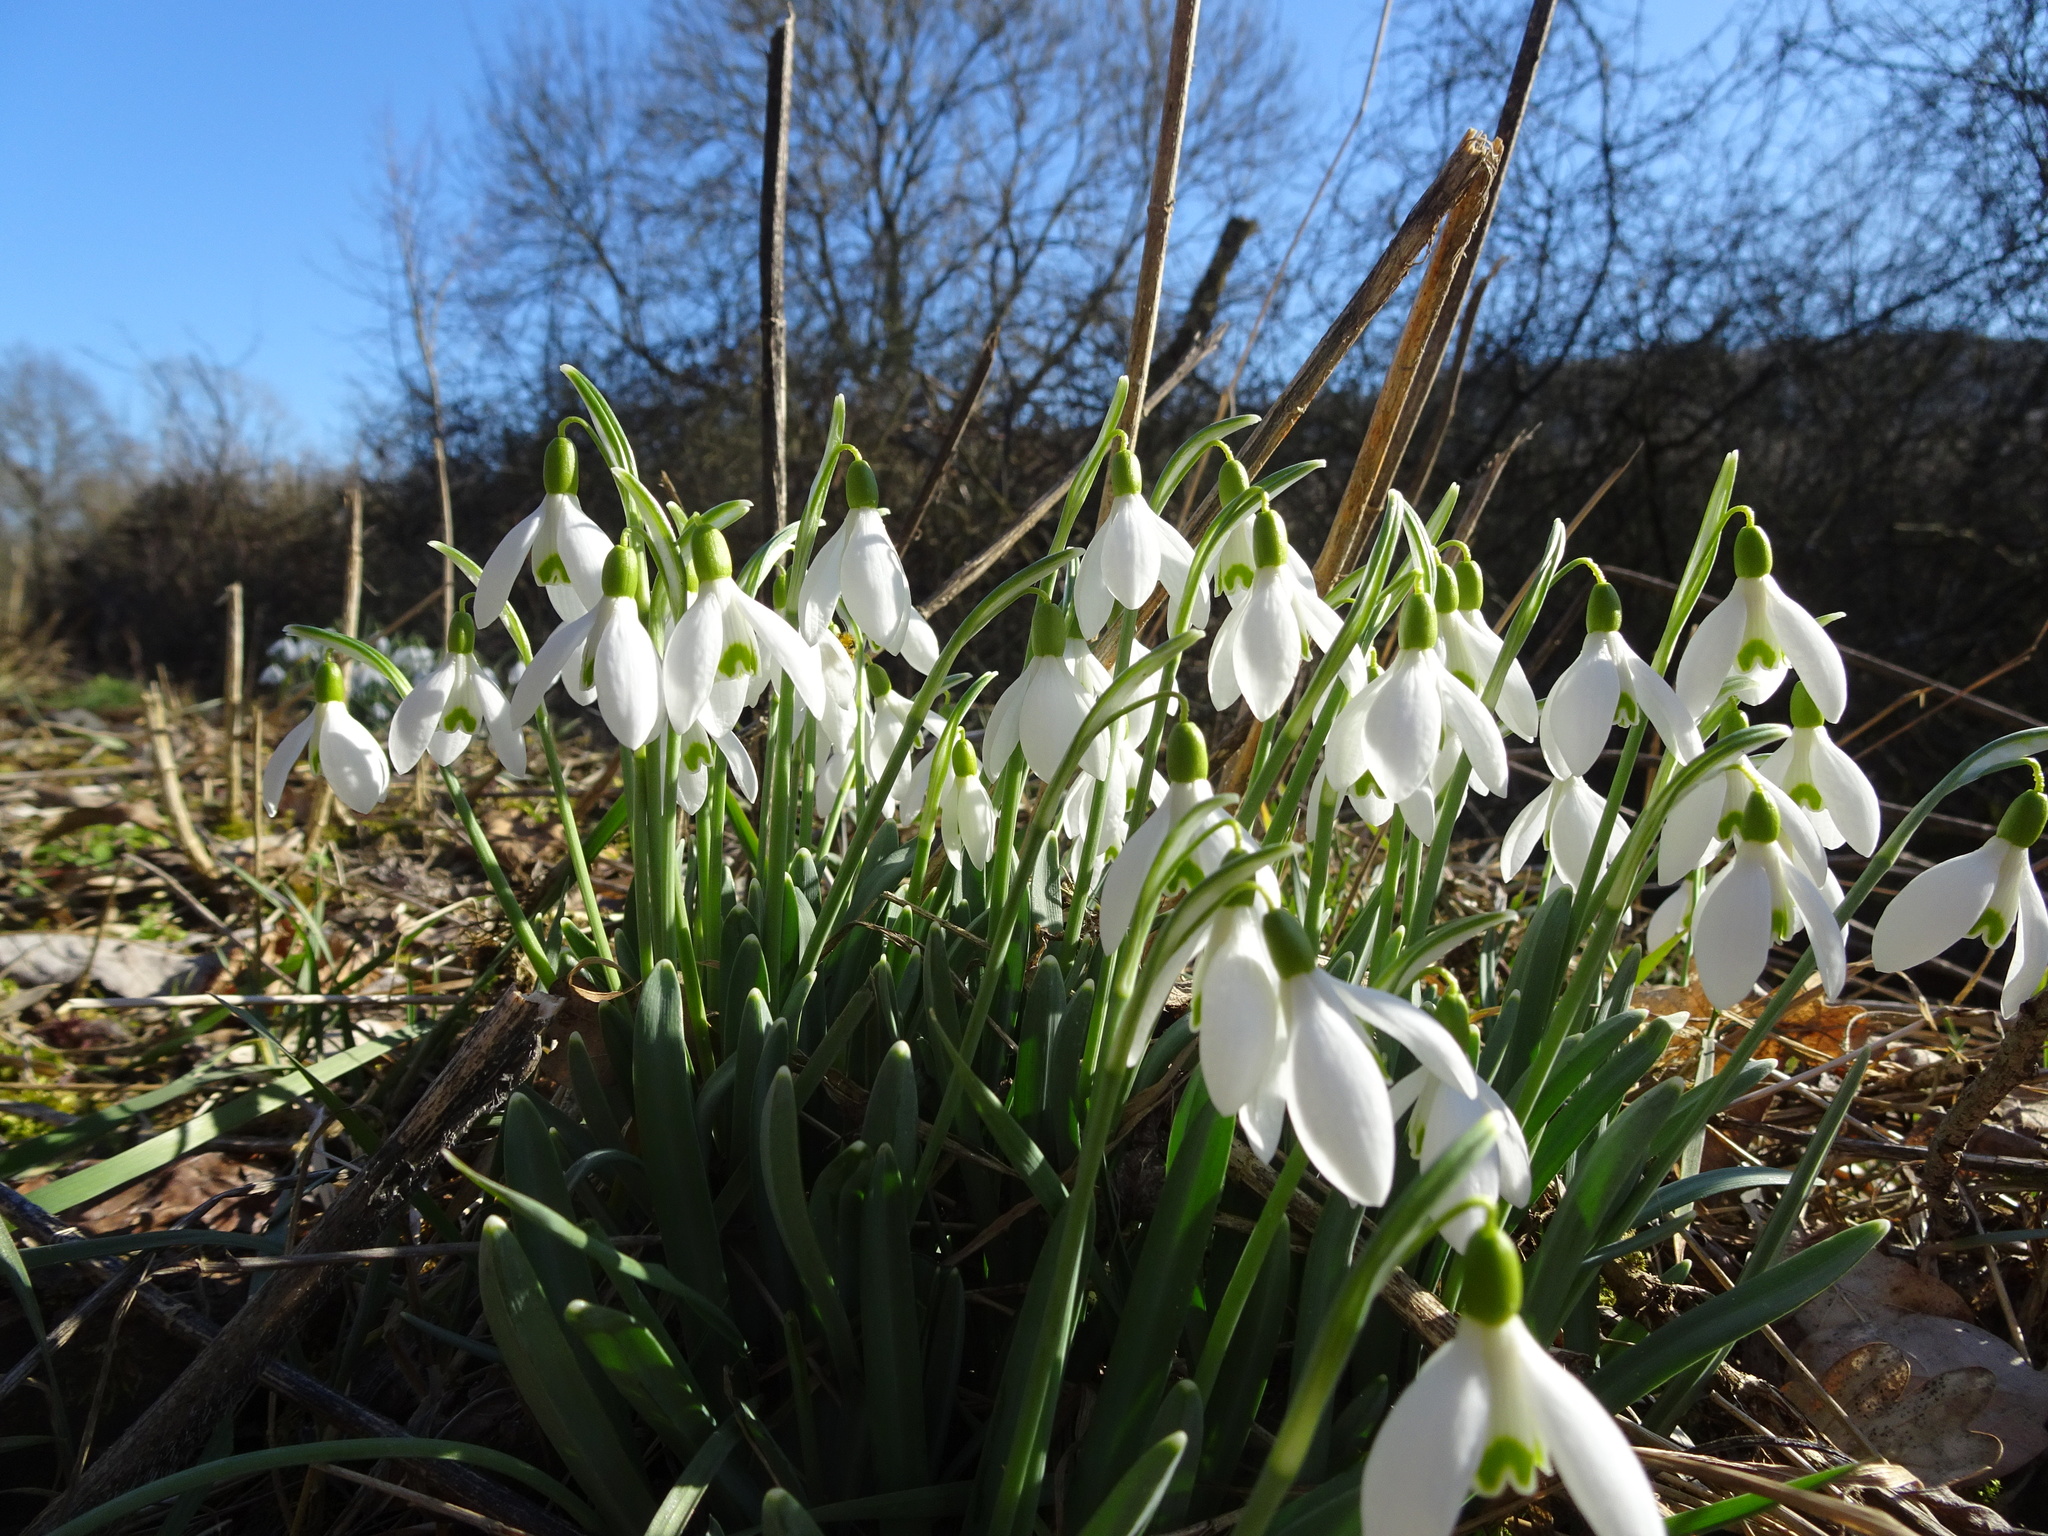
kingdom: Plantae
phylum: Tracheophyta
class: Liliopsida
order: Asparagales
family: Amaryllidaceae
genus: Galanthus
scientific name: Galanthus nivalis
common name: Snowdrop
